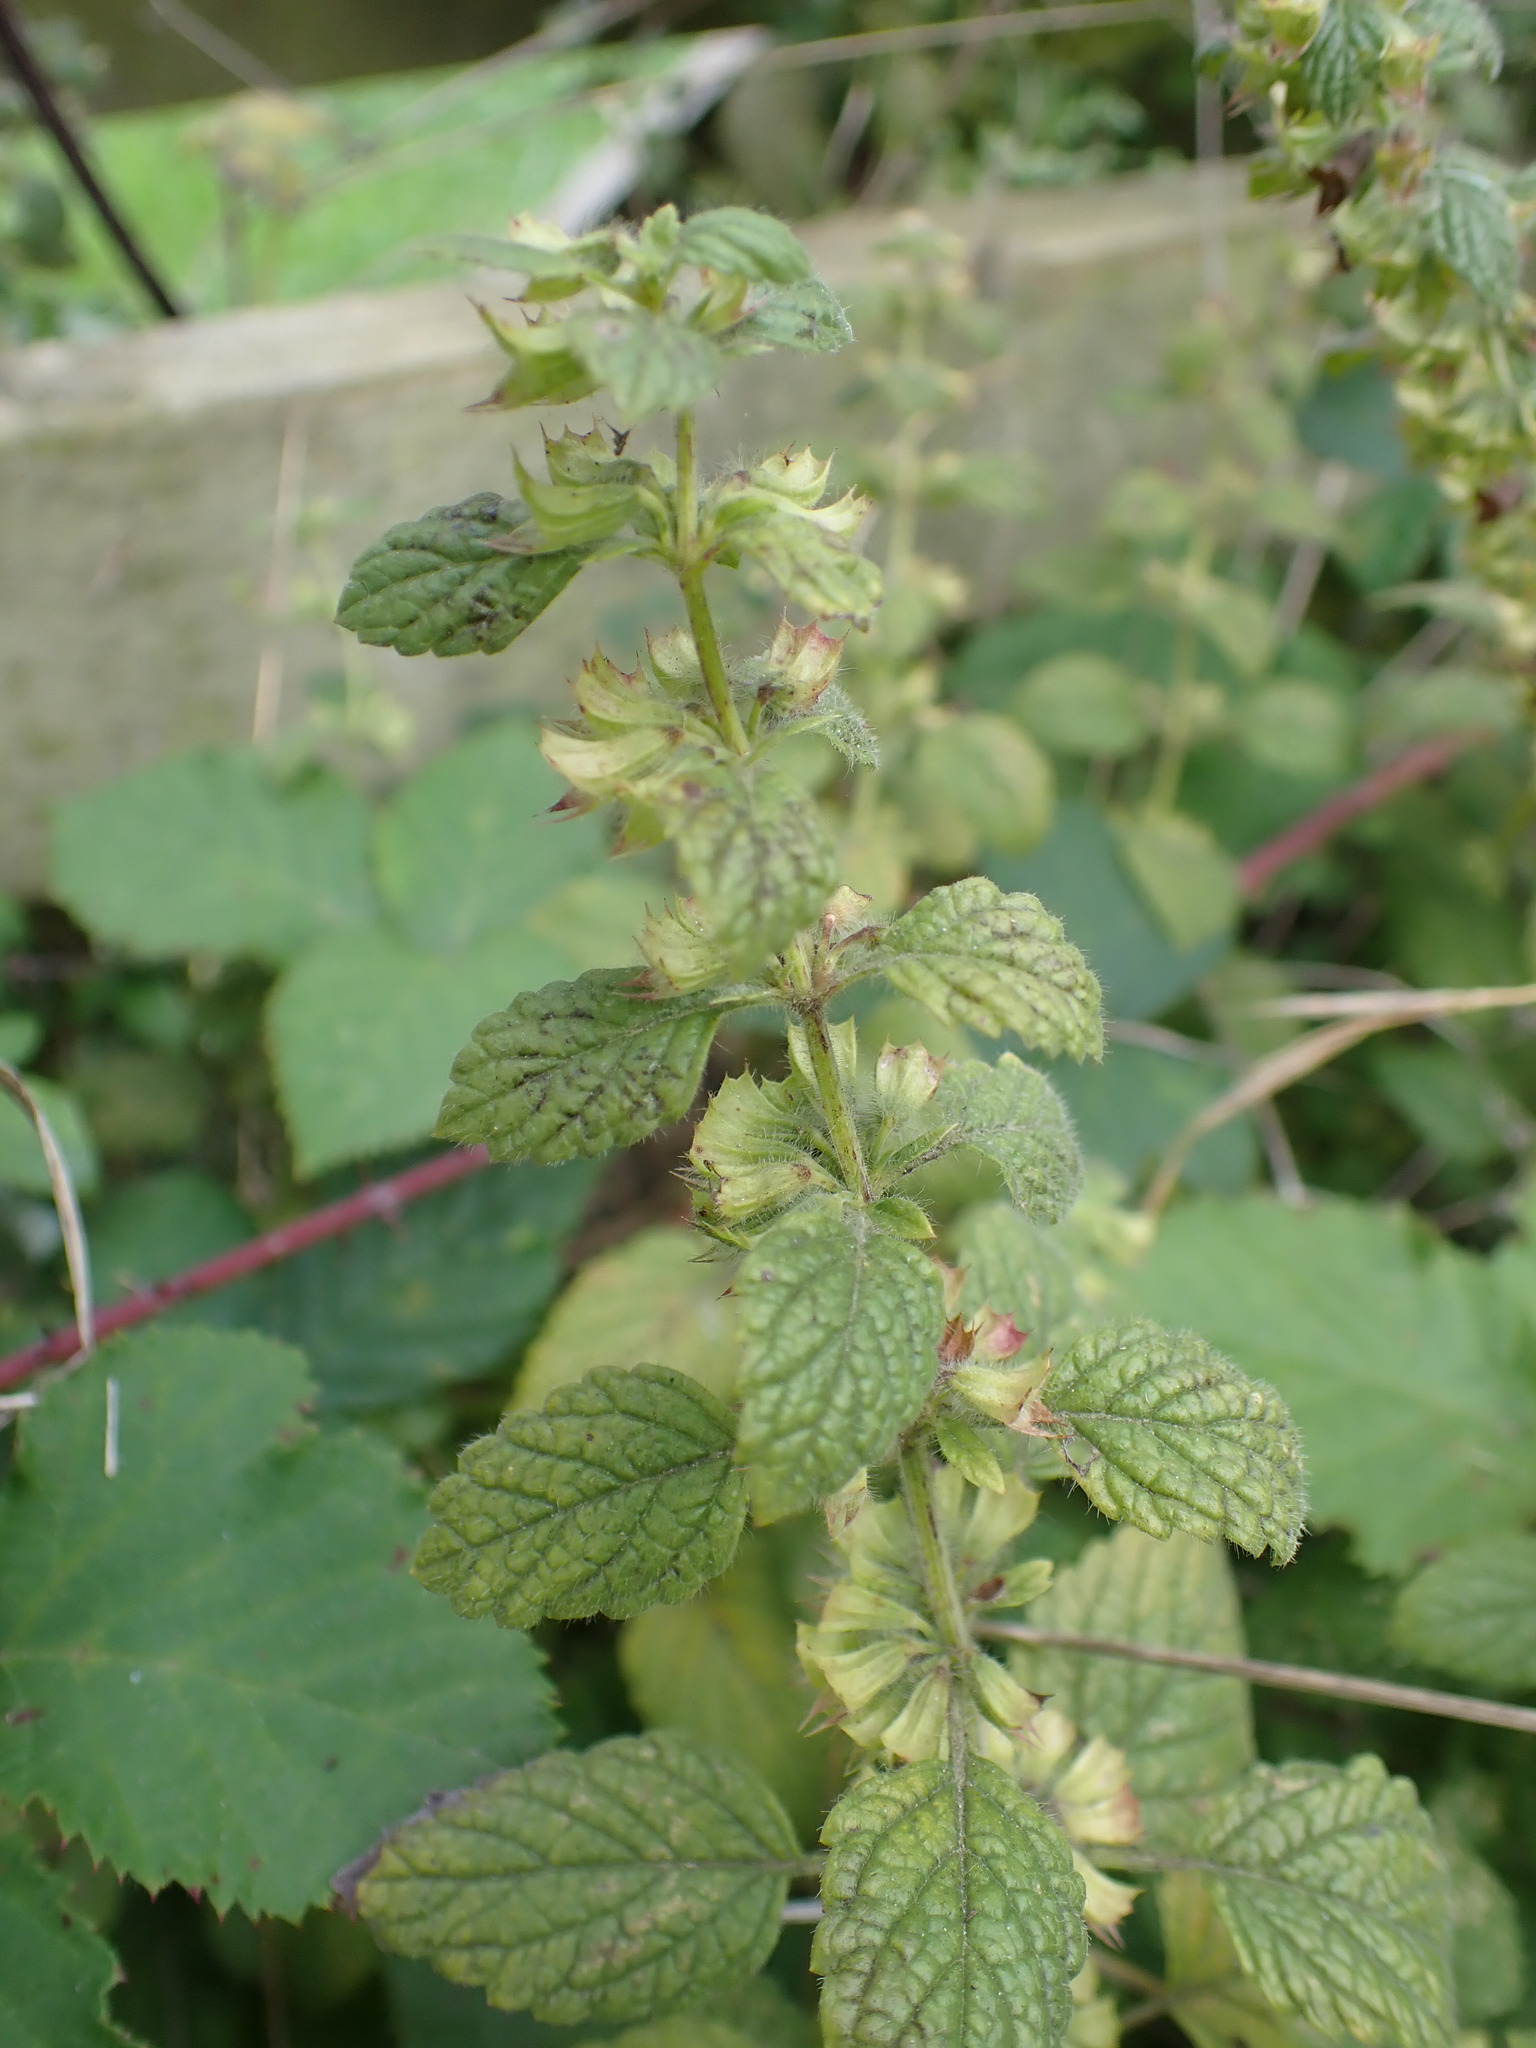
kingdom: Plantae
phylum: Tracheophyta
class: Magnoliopsida
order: Lamiales
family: Lamiaceae
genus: Melissa
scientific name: Melissa officinalis
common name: Balm
